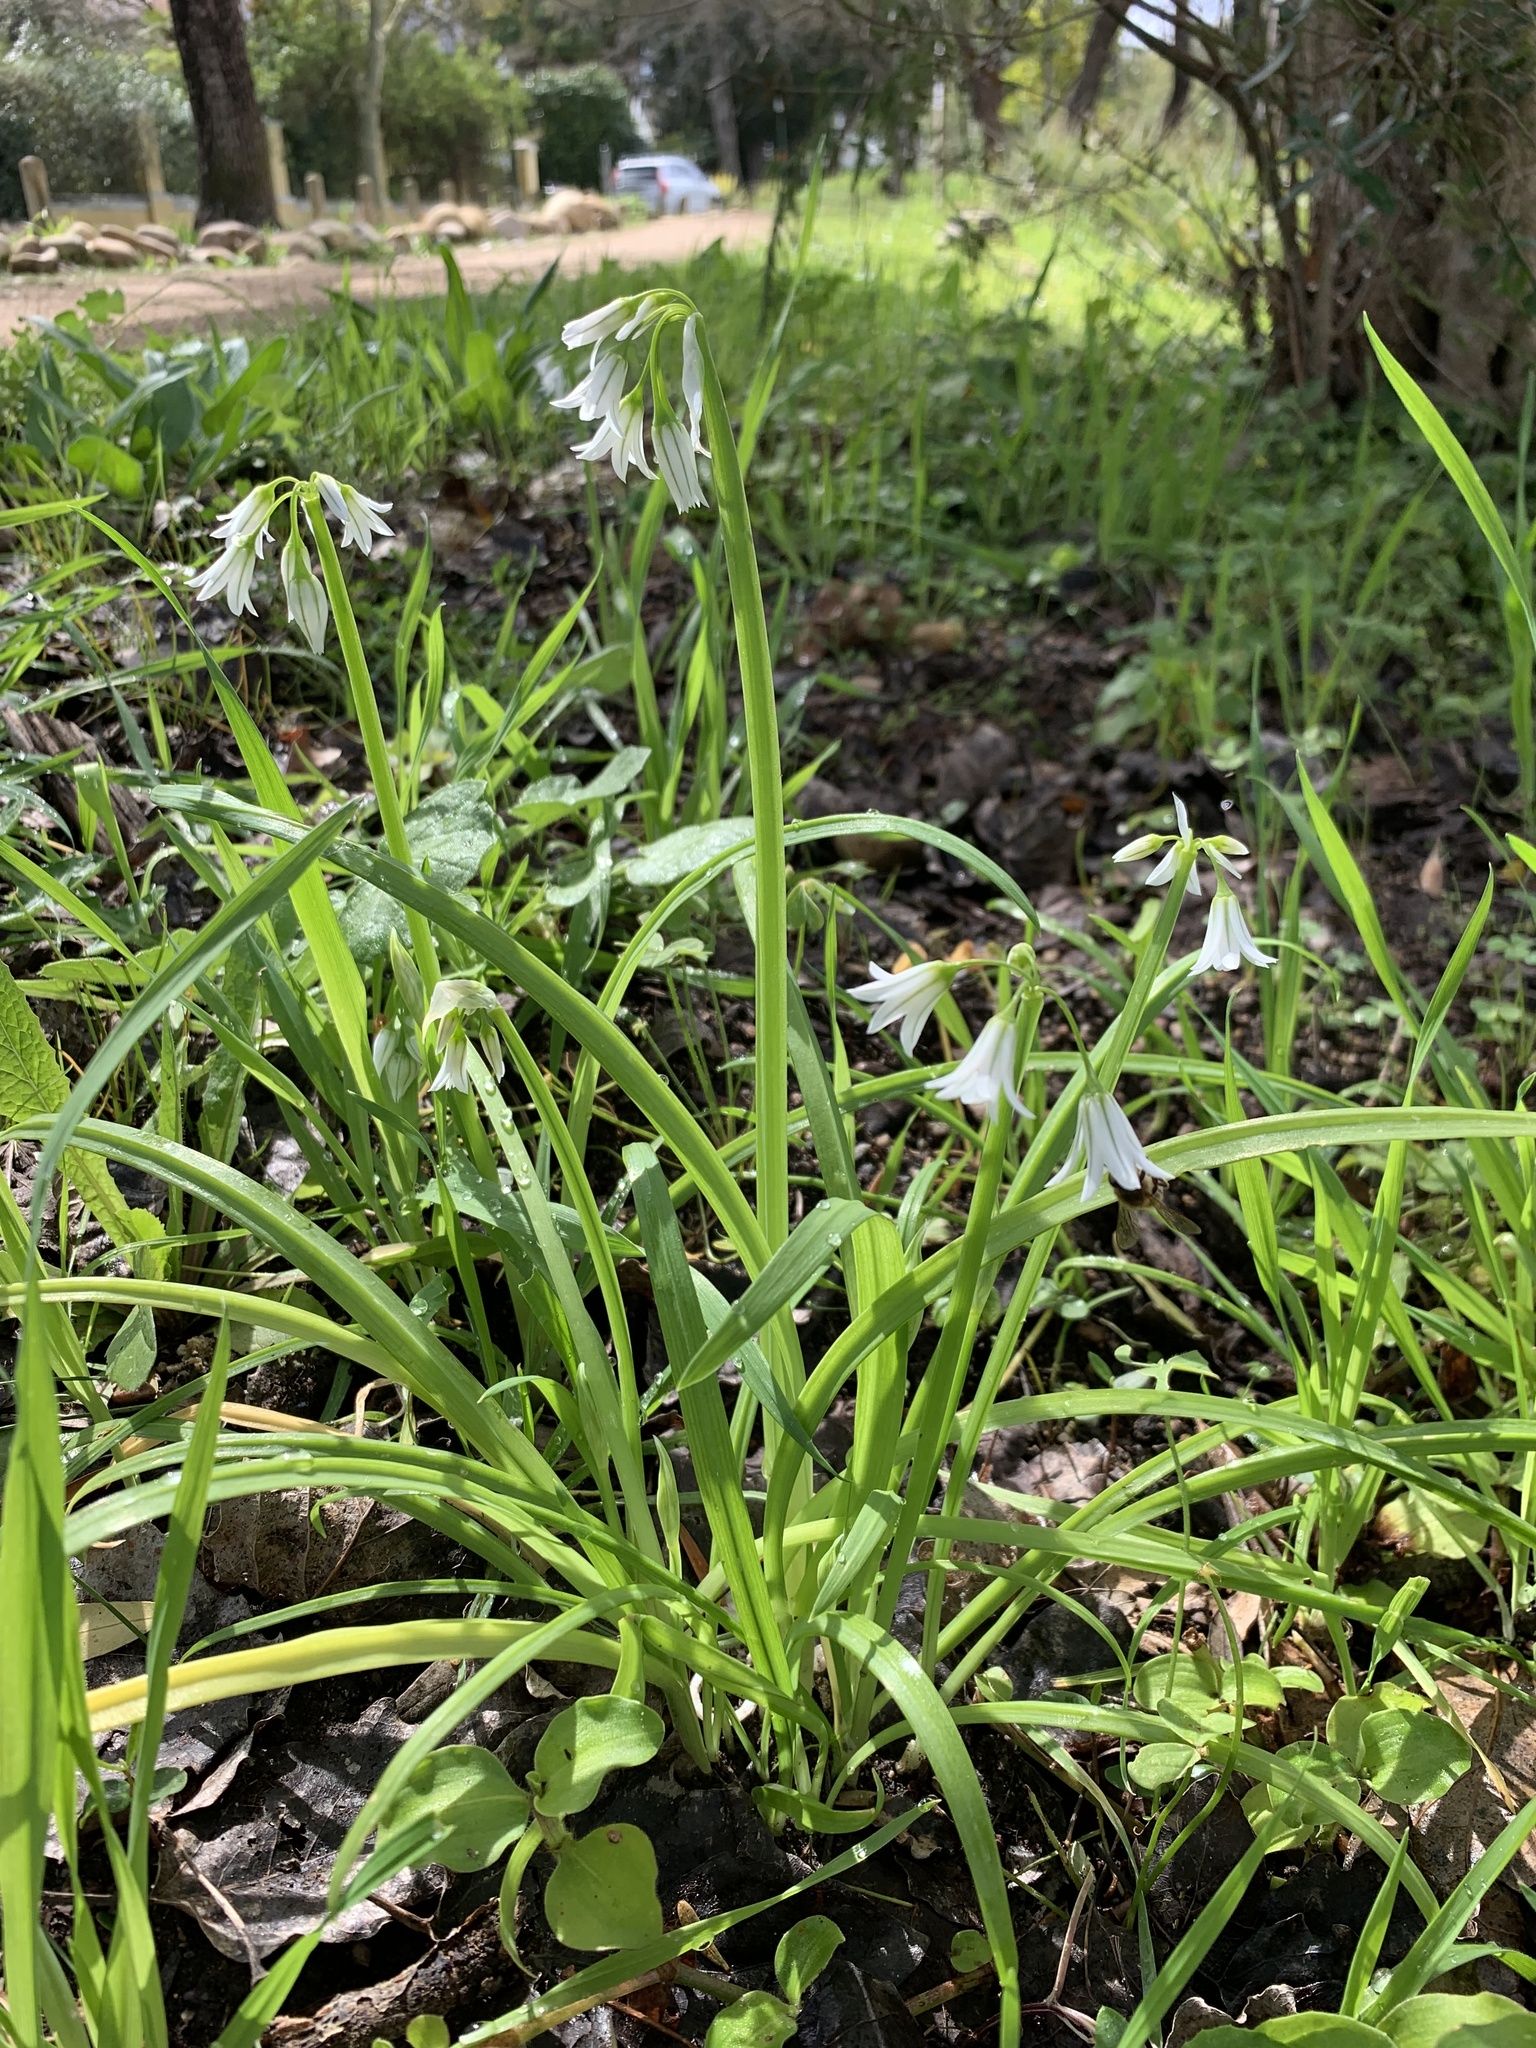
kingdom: Plantae
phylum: Tracheophyta
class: Liliopsida
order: Asparagales
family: Amaryllidaceae
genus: Allium
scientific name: Allium triquetrum
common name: Three-cornered garlic
